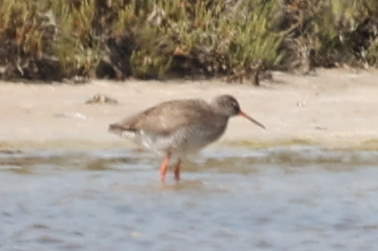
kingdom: Animalia
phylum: Chordata
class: Aves
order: Charadriiformes
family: Scolopacidae
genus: Tringa
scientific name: Tringa totanus
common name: Common redshank
